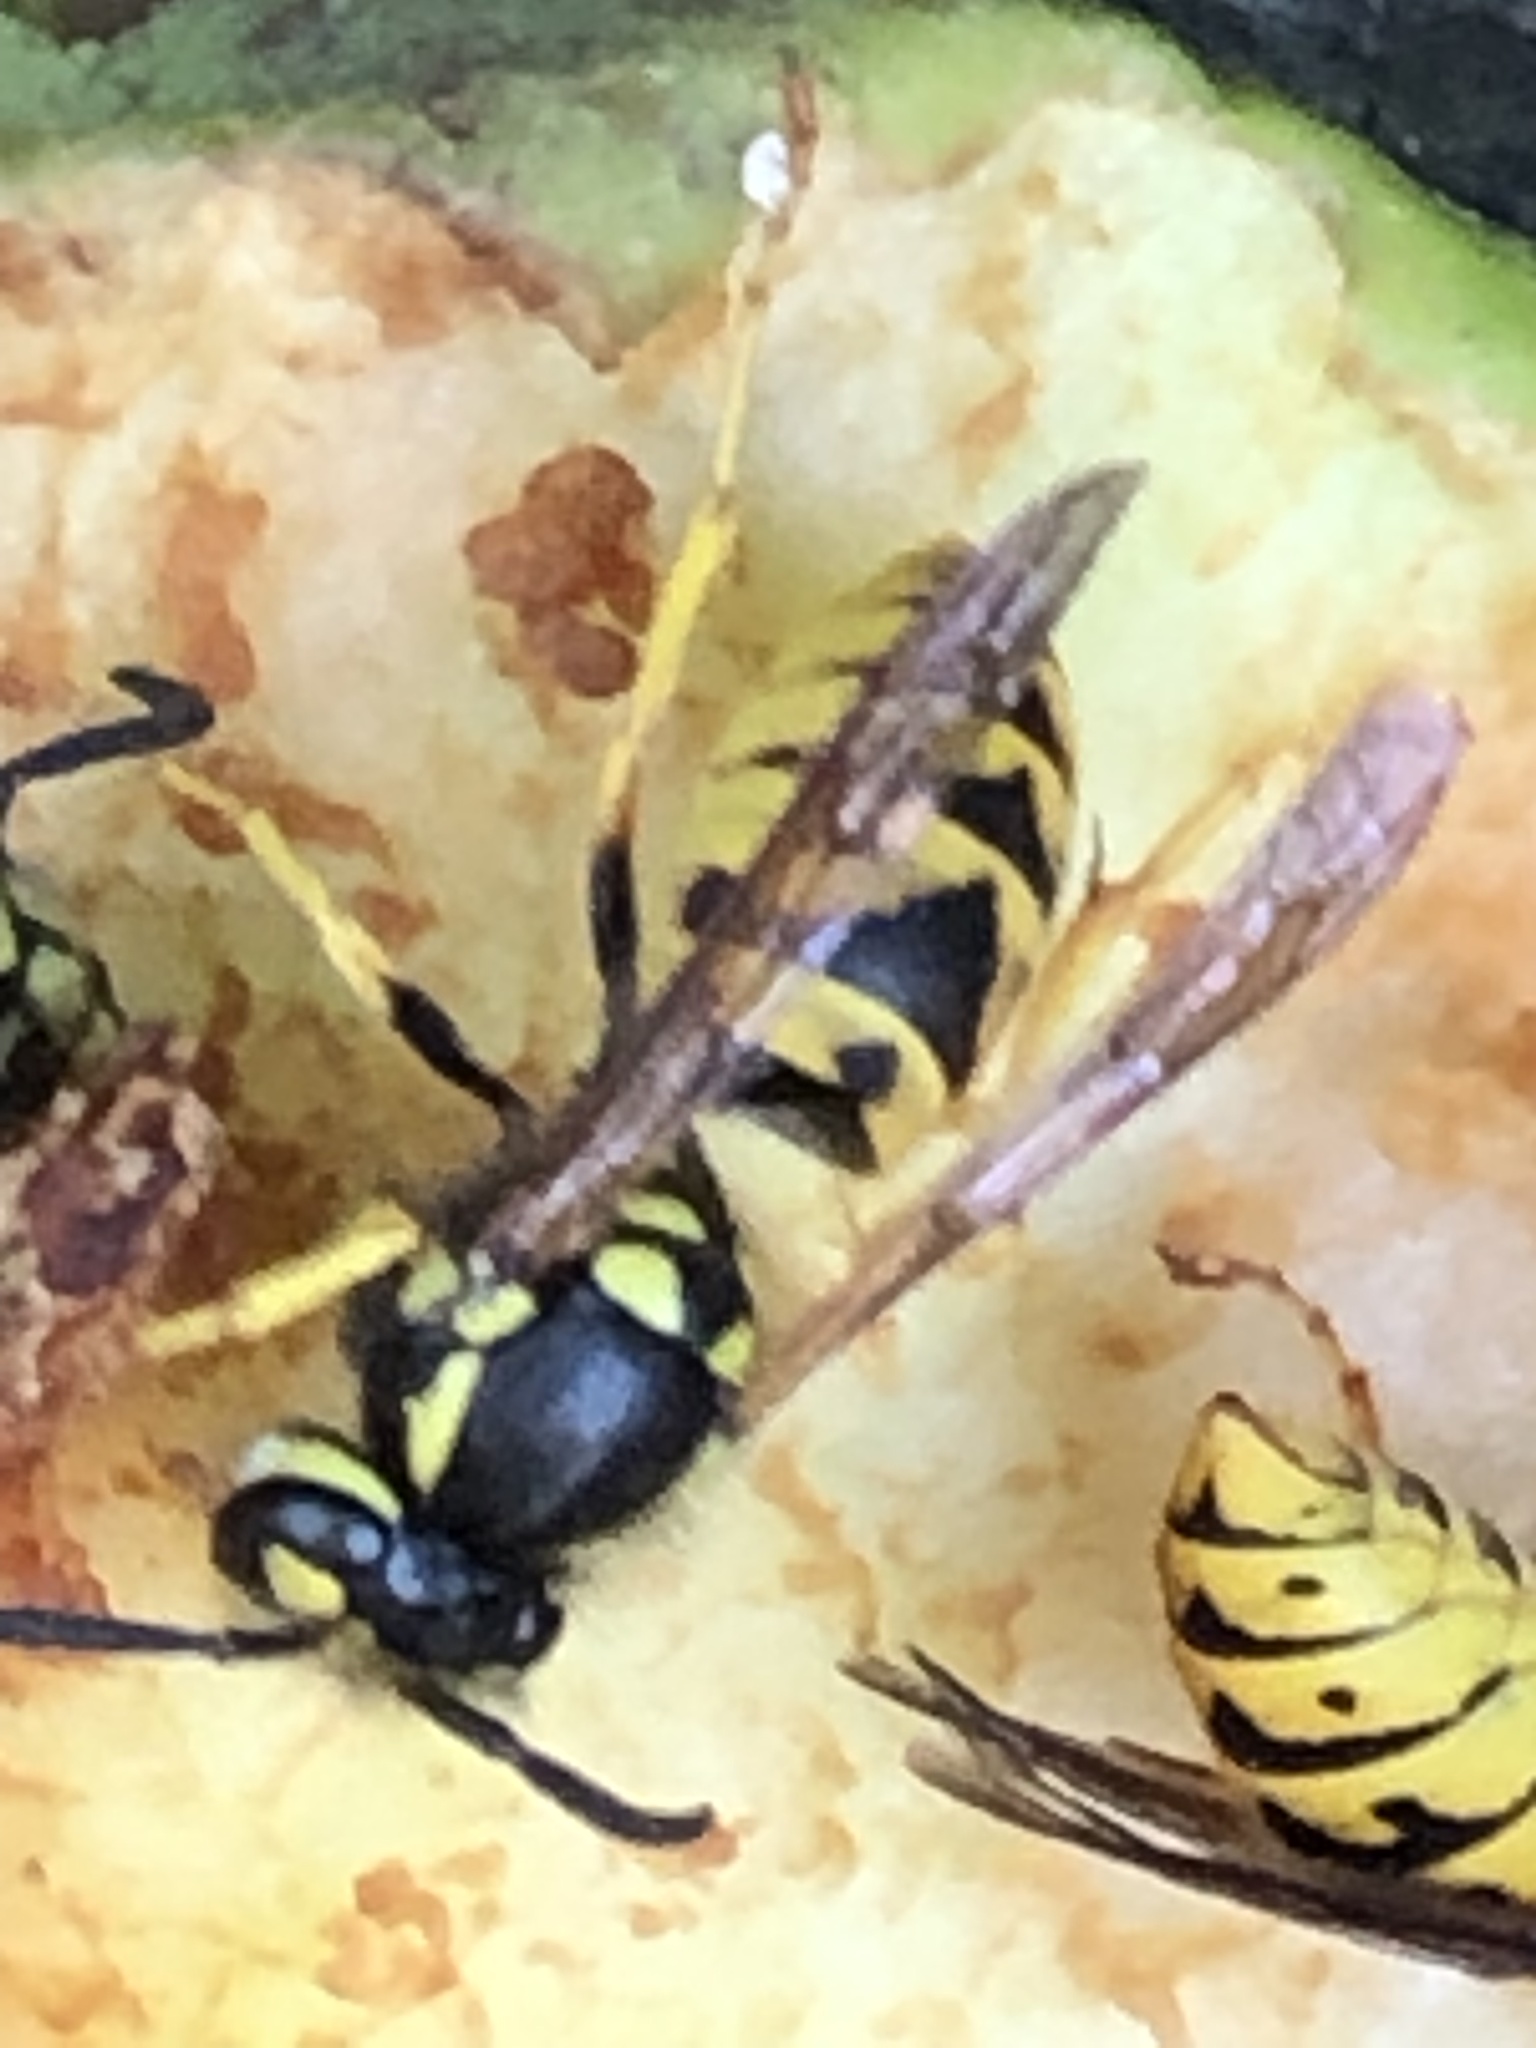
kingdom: Animalia
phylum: Arthropoda
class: Insecta
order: Hymenoptera
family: Vespidae
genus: Vespula
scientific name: Vespula germanica
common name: German wasp
